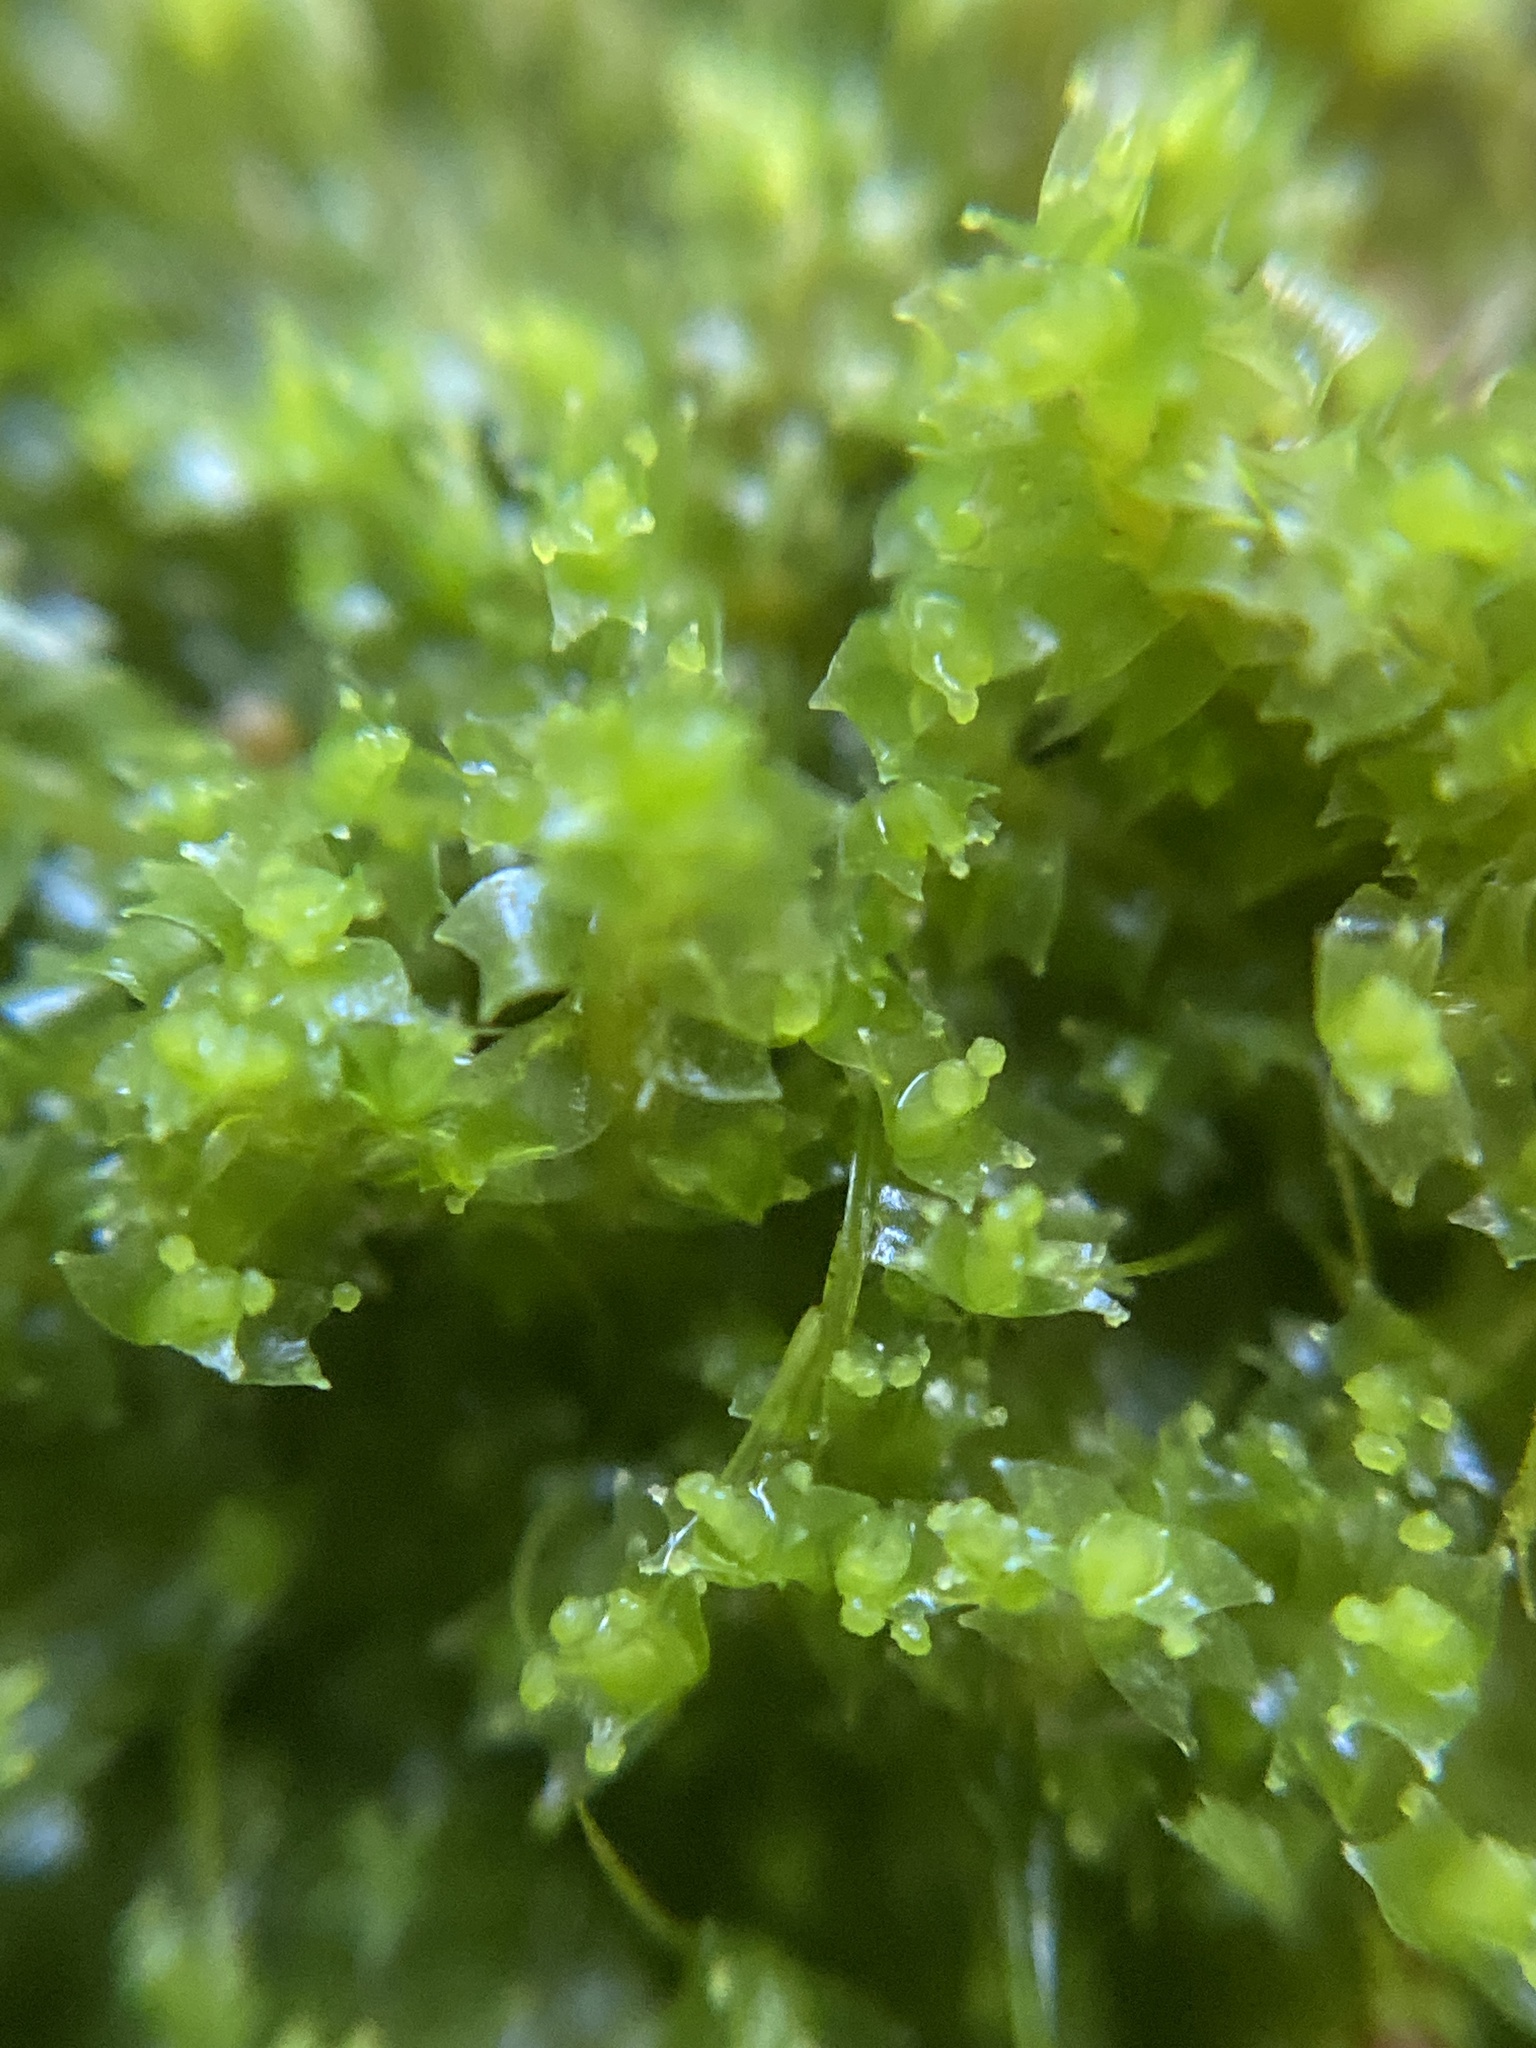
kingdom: Plantae
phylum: Marchantiophyta
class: Jungermanniopsida
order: Jungermanniales
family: Lophoziaceae
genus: Lophozia
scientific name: Lophozia ventricosa
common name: Tumid notchwort
